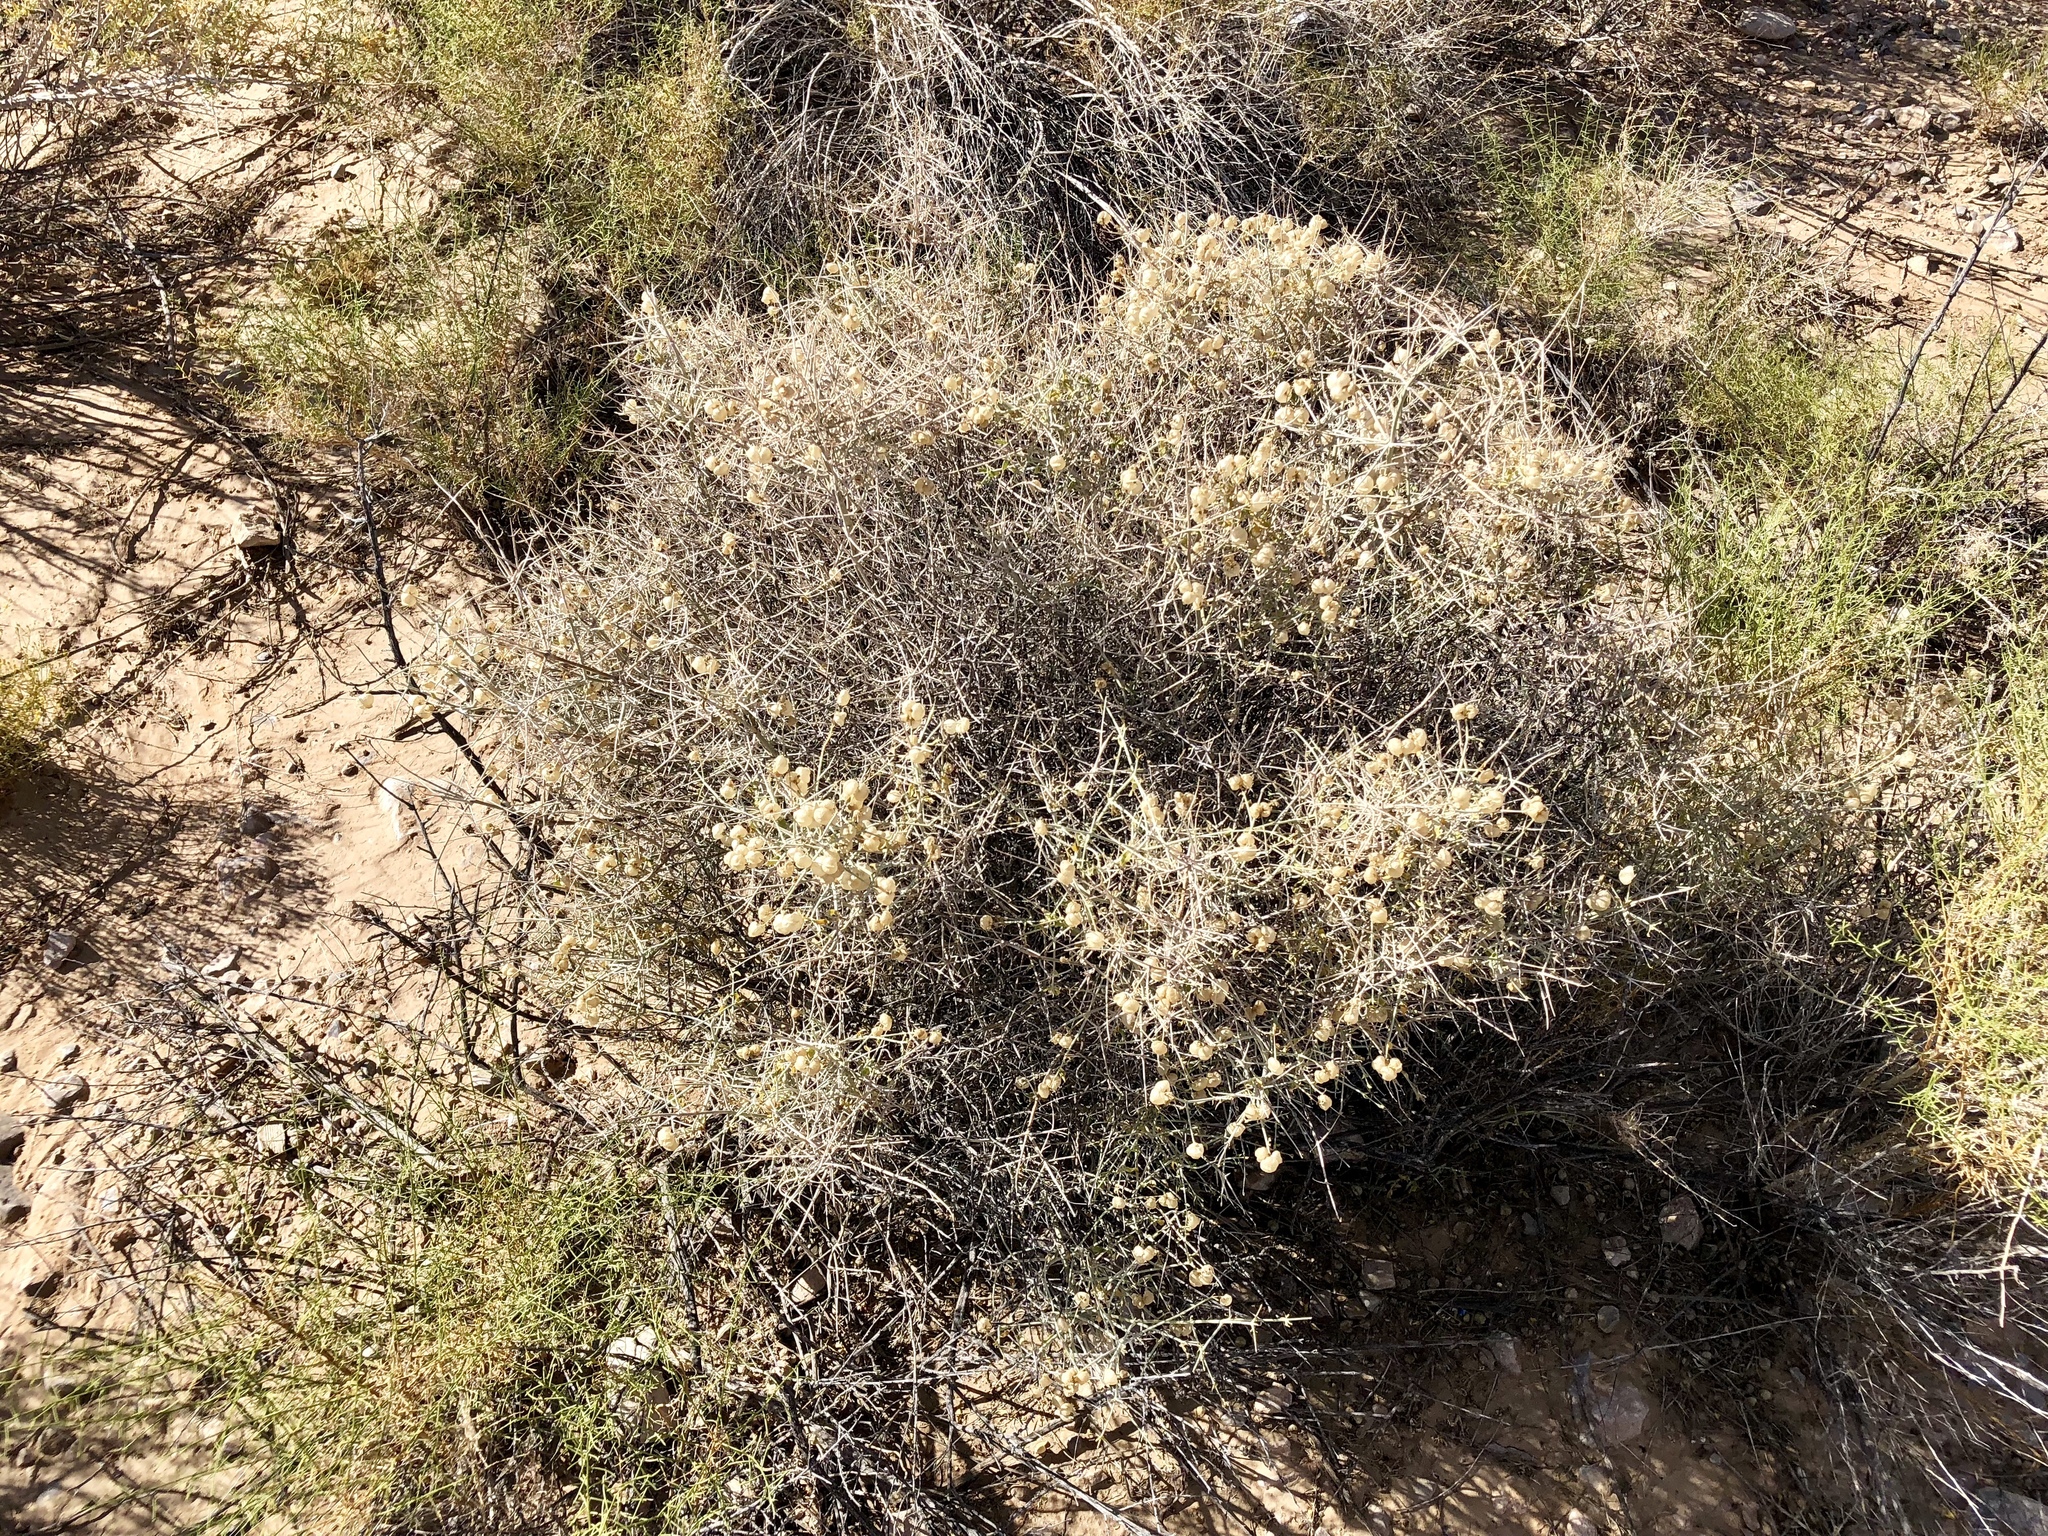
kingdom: Plantae
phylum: Tracheophyta
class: Magnoliopsida
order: Lamiales
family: Lamiaceae
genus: Scutellaria
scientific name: Scutellaria mexicana
